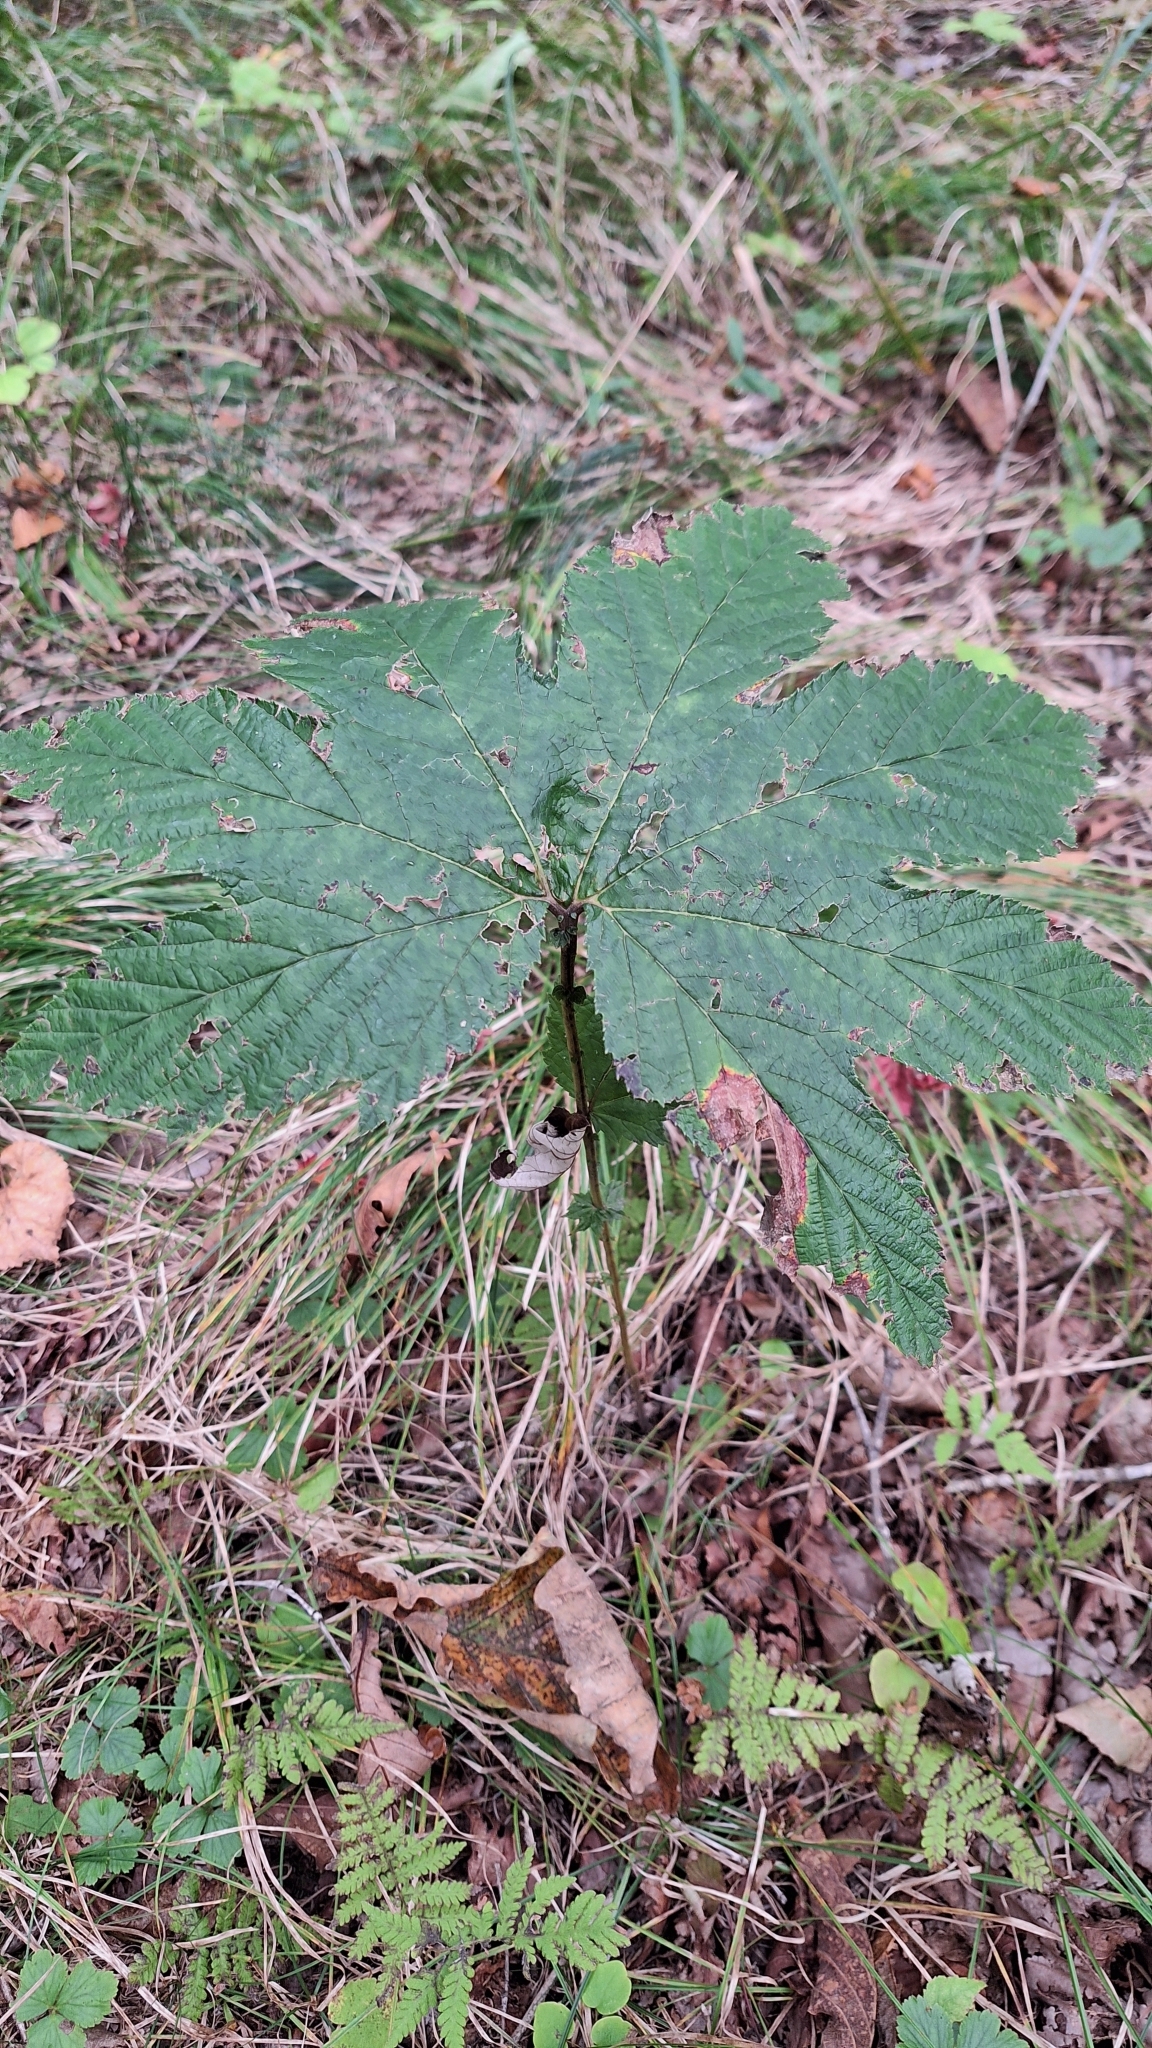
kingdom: Plantae
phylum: Tracheophyta
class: Magnoliopsida
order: Rosales
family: Rosaceae
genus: Filipendula
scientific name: Filipendula digitata
